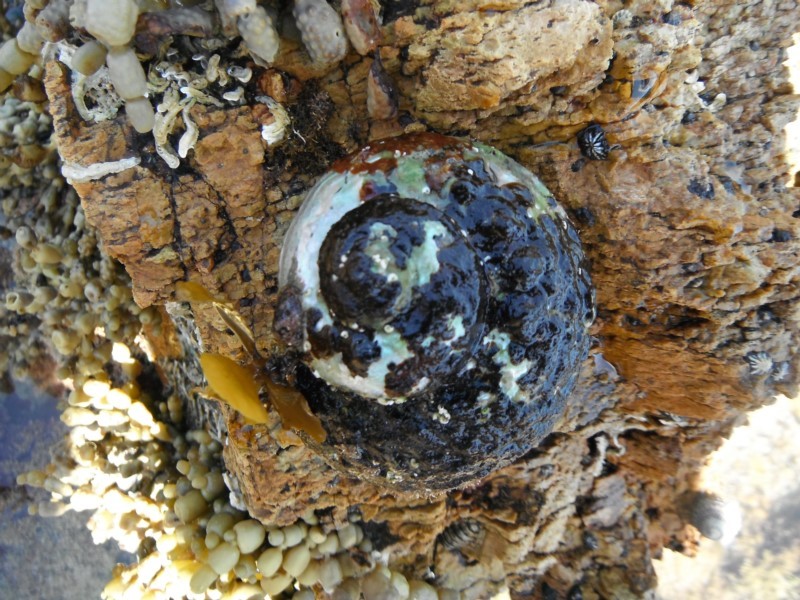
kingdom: Animalia
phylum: Mollusca
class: Gastropoda
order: Trochida
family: Turbinidae
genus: Lunella
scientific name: Lunella torquata
